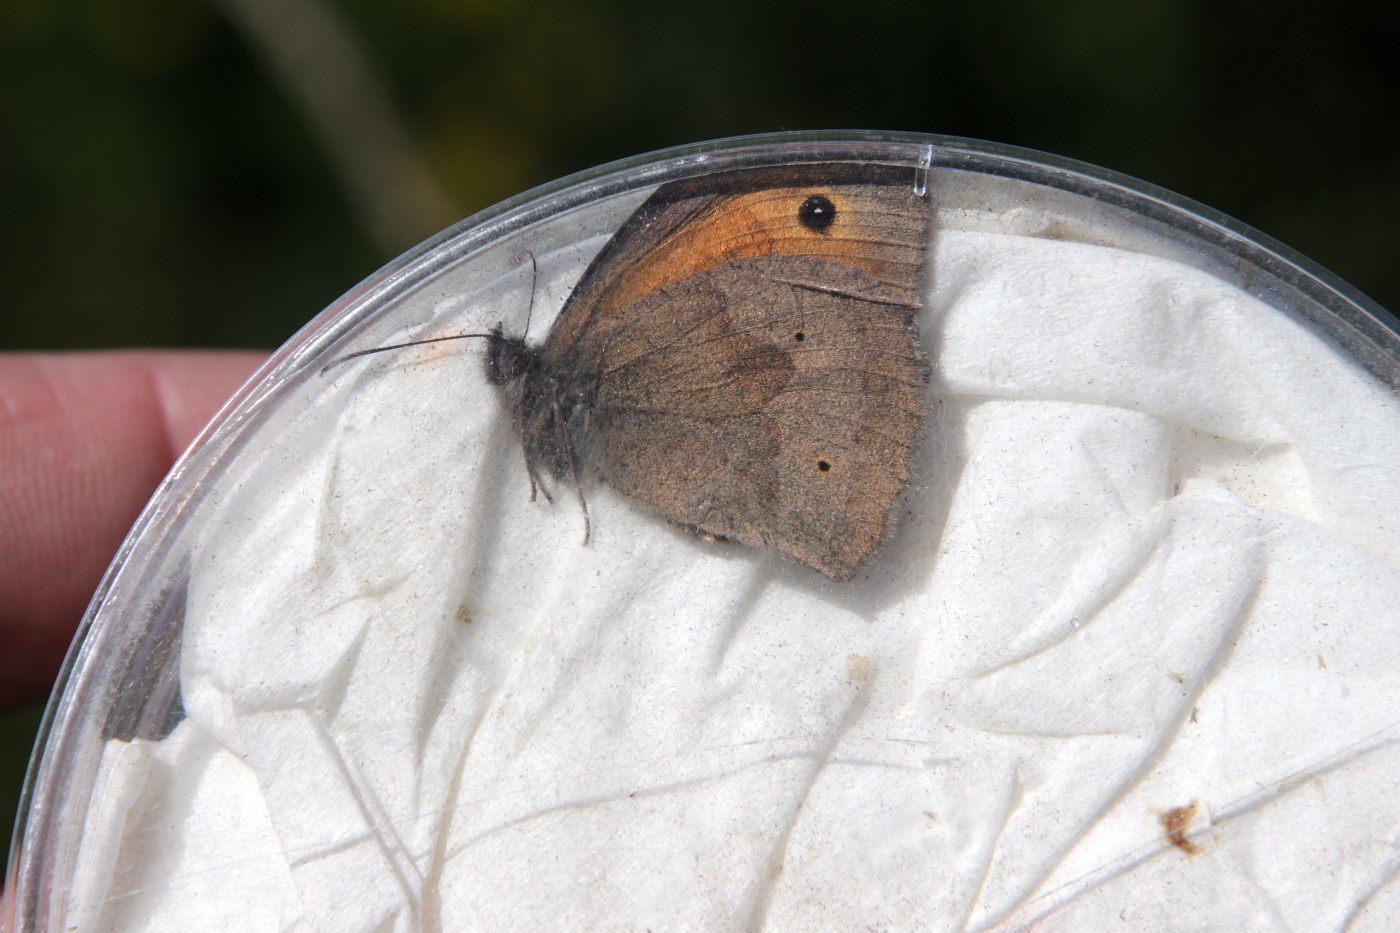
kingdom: Animalia
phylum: Arthropoda
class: Insecta
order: Lepidoptera
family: Nymphalidae
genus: Maniola
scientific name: Maniola jurtina
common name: Meadow brown
